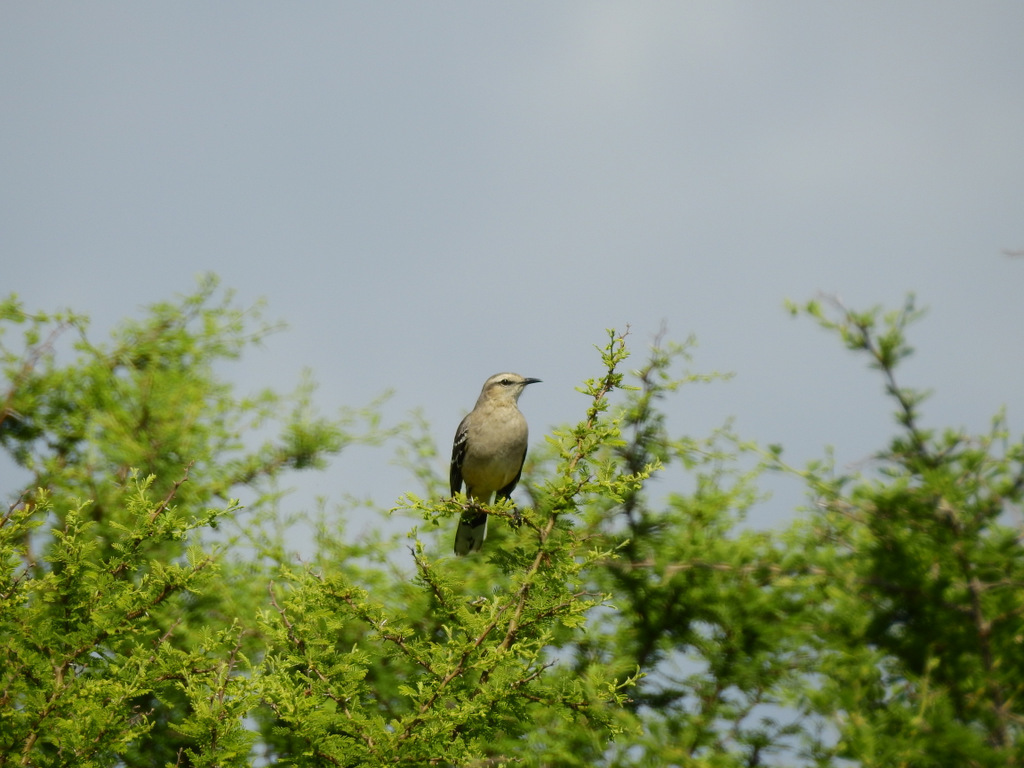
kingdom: Animalia
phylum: Chordata
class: Aves
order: Passeriformes
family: Mimidae
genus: Mimus
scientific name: Mimus patagonicus
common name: Patagonian mockingbird
